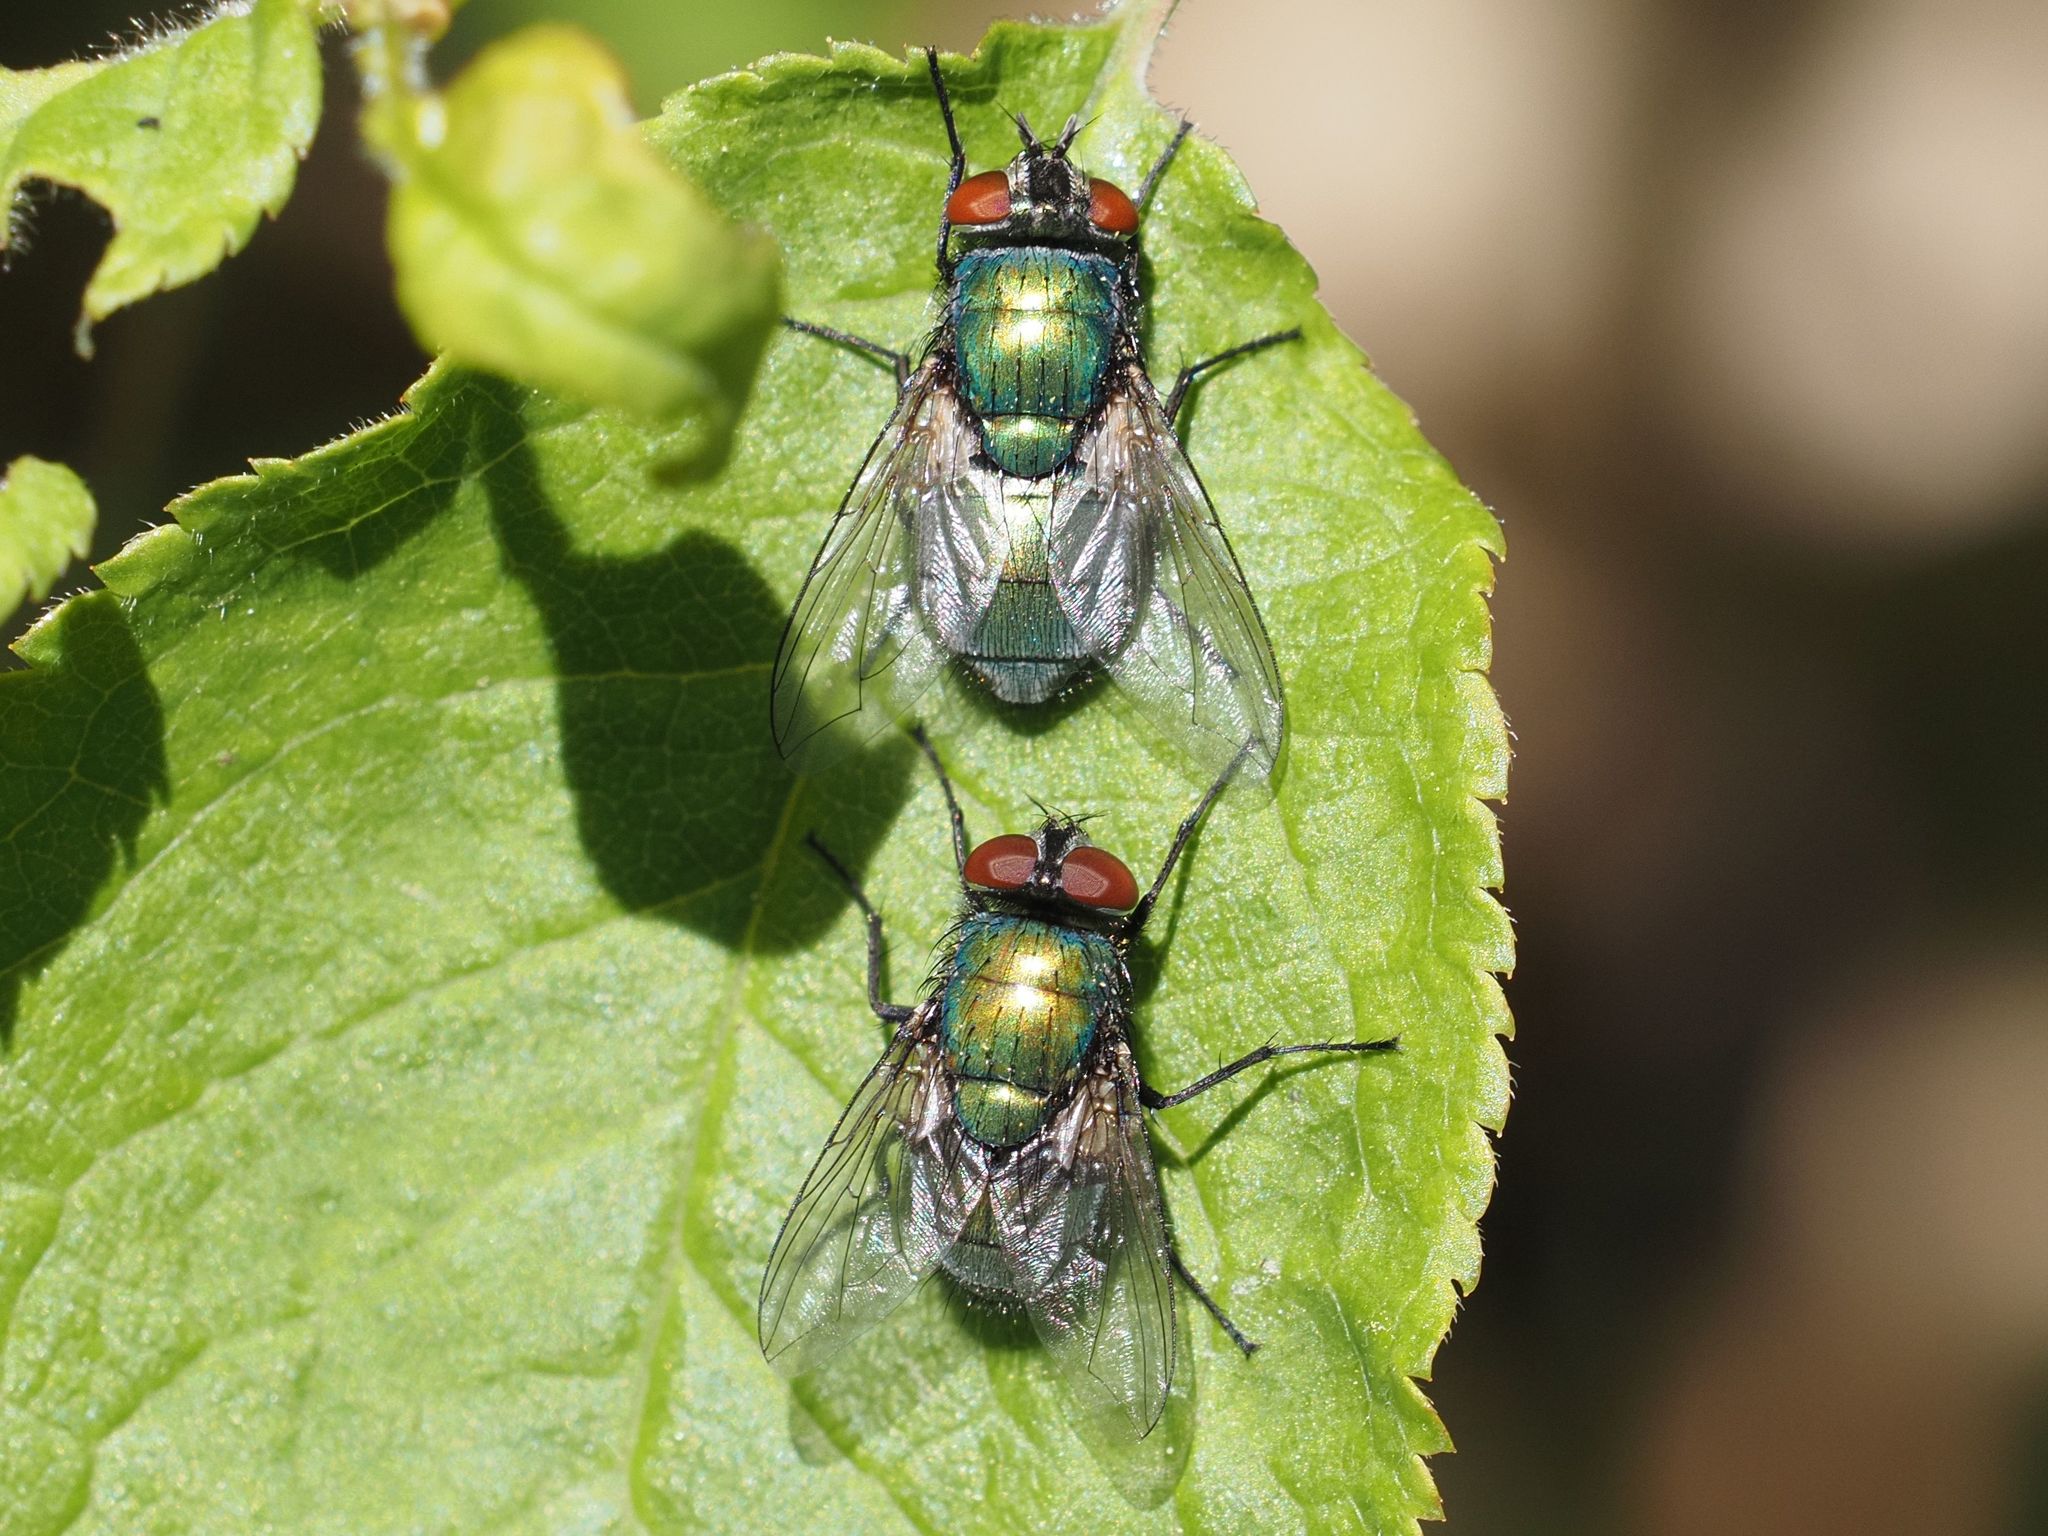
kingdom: Animalia
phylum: Arthropoda
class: Insecta
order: Diptera
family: Calliphoridae
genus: Lucilia
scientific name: Lucilia sericata
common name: Blow fly
